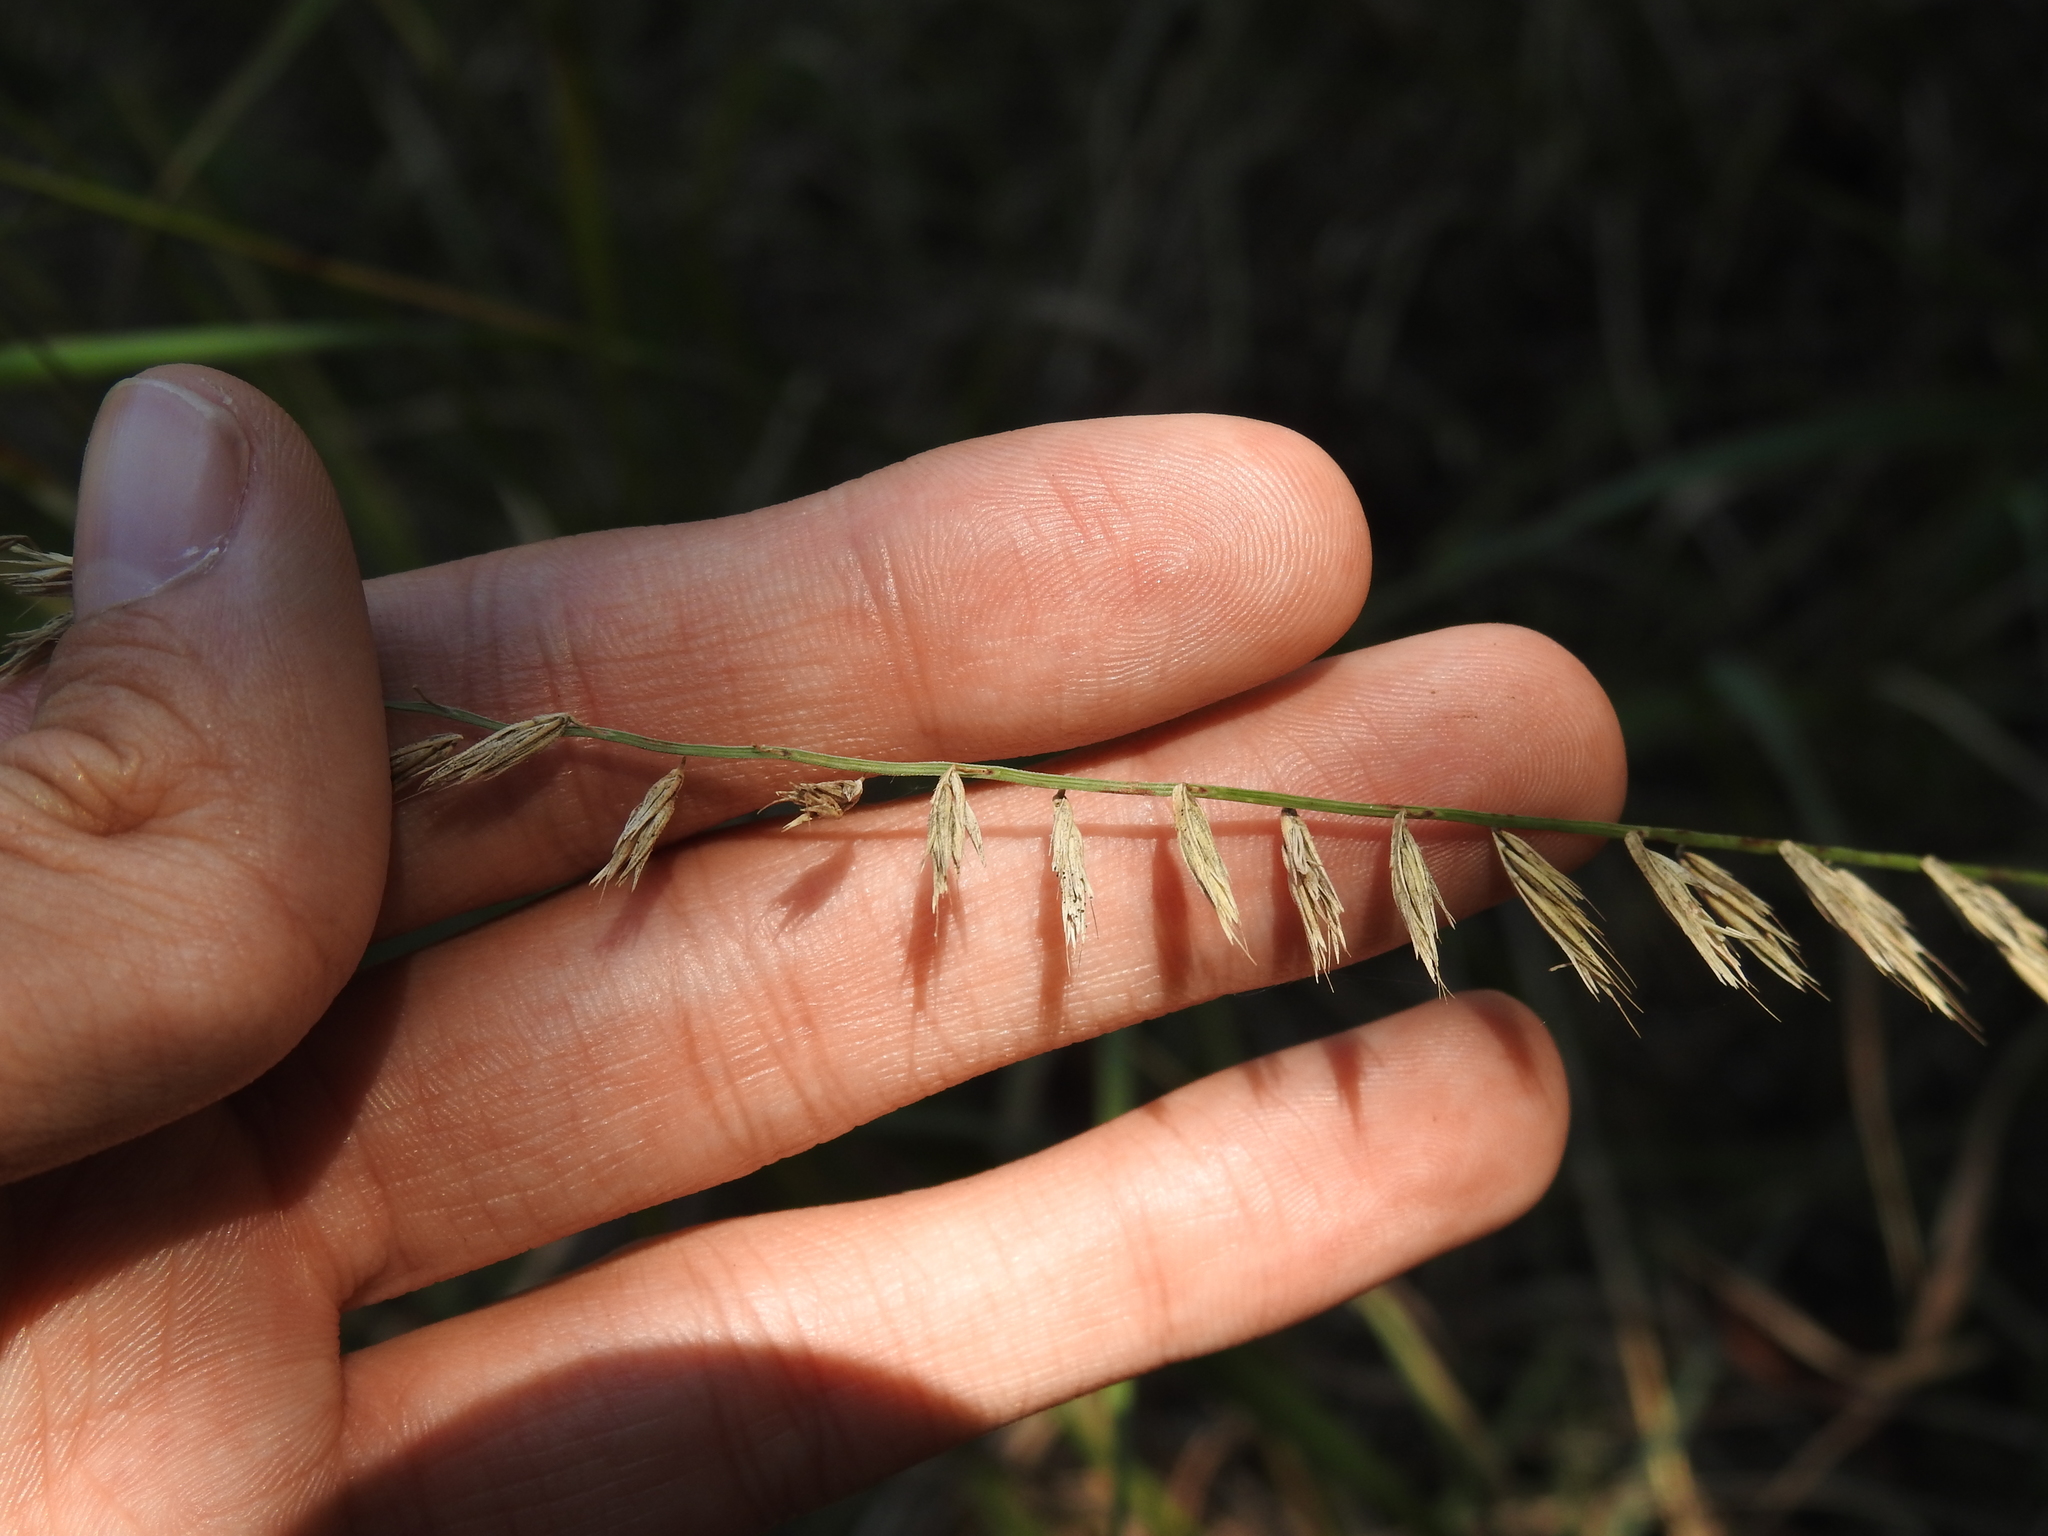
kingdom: Plantae
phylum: Tracheophyta
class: Liliopsida
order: Poales
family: Poaceae
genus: Bouteloua
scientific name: Bouteloua curtipendula
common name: Side-oats grama
